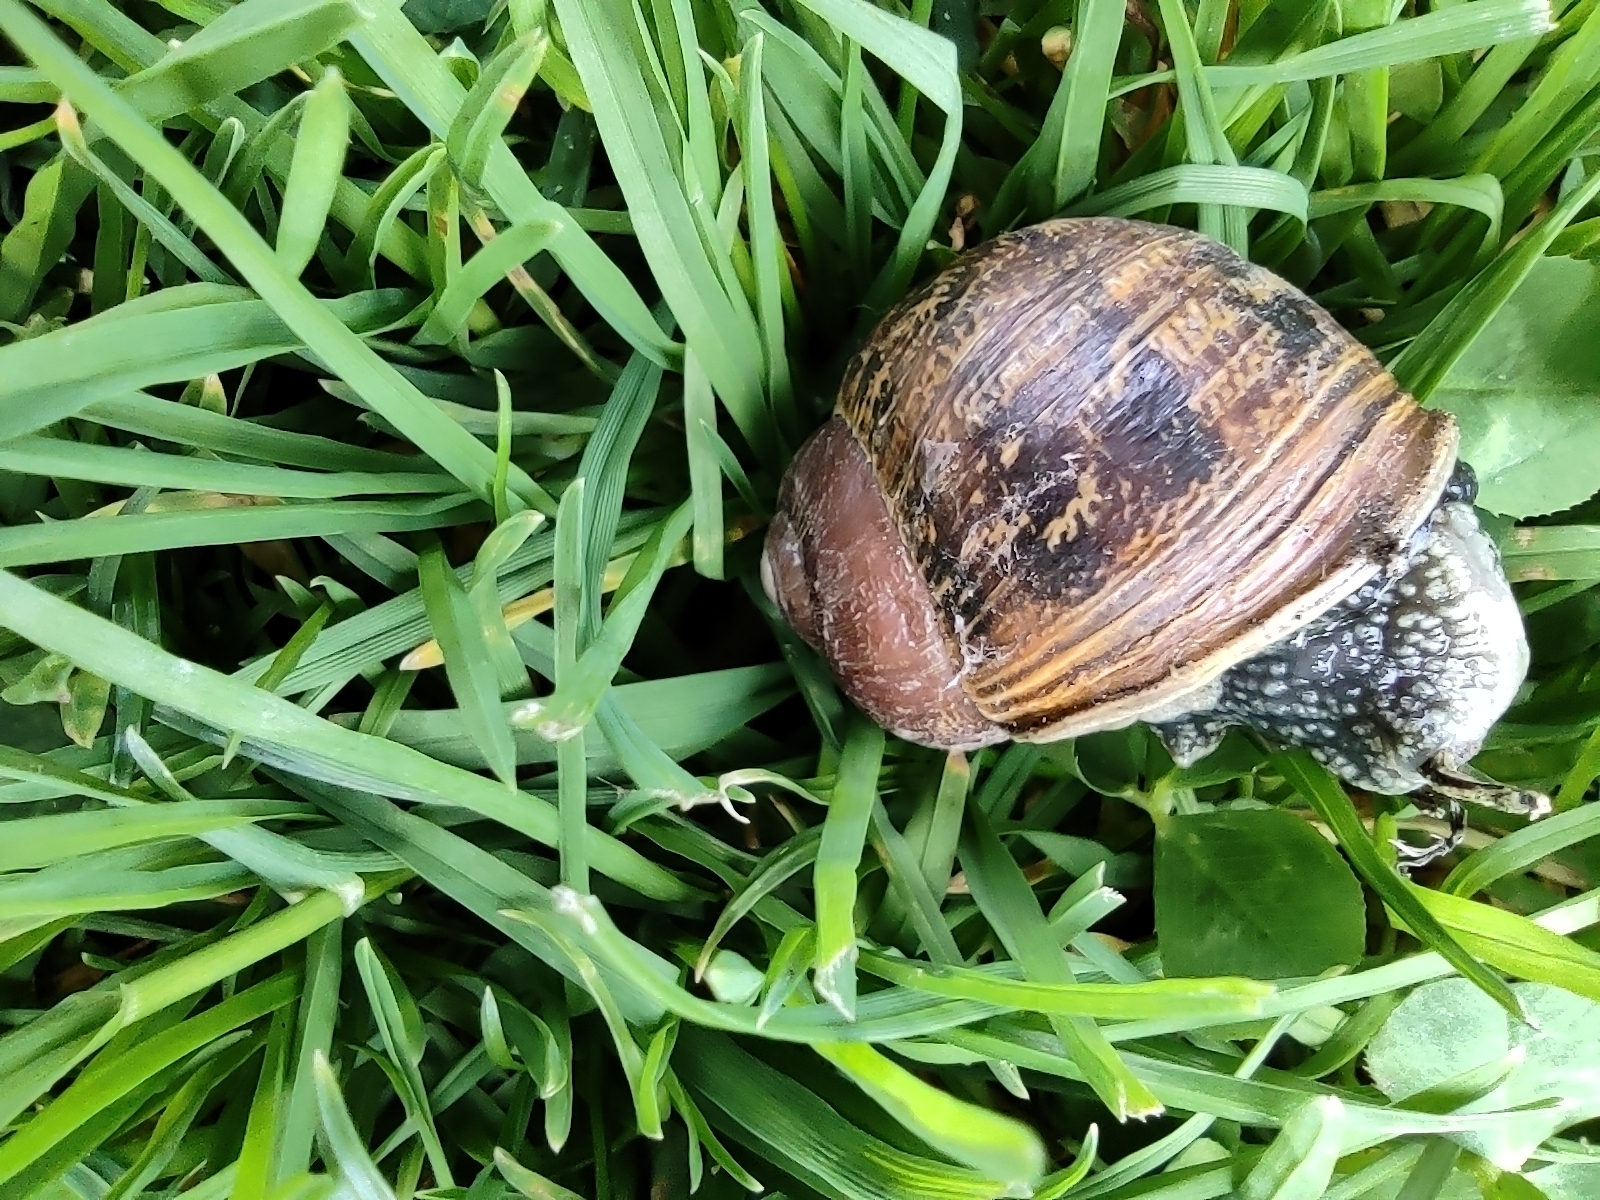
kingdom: Animalia
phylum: Mollusca
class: Gastropoda
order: Stylommatophora
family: Helicidae
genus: Cornu
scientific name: Cornu aspersum
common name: Brown garden snail
